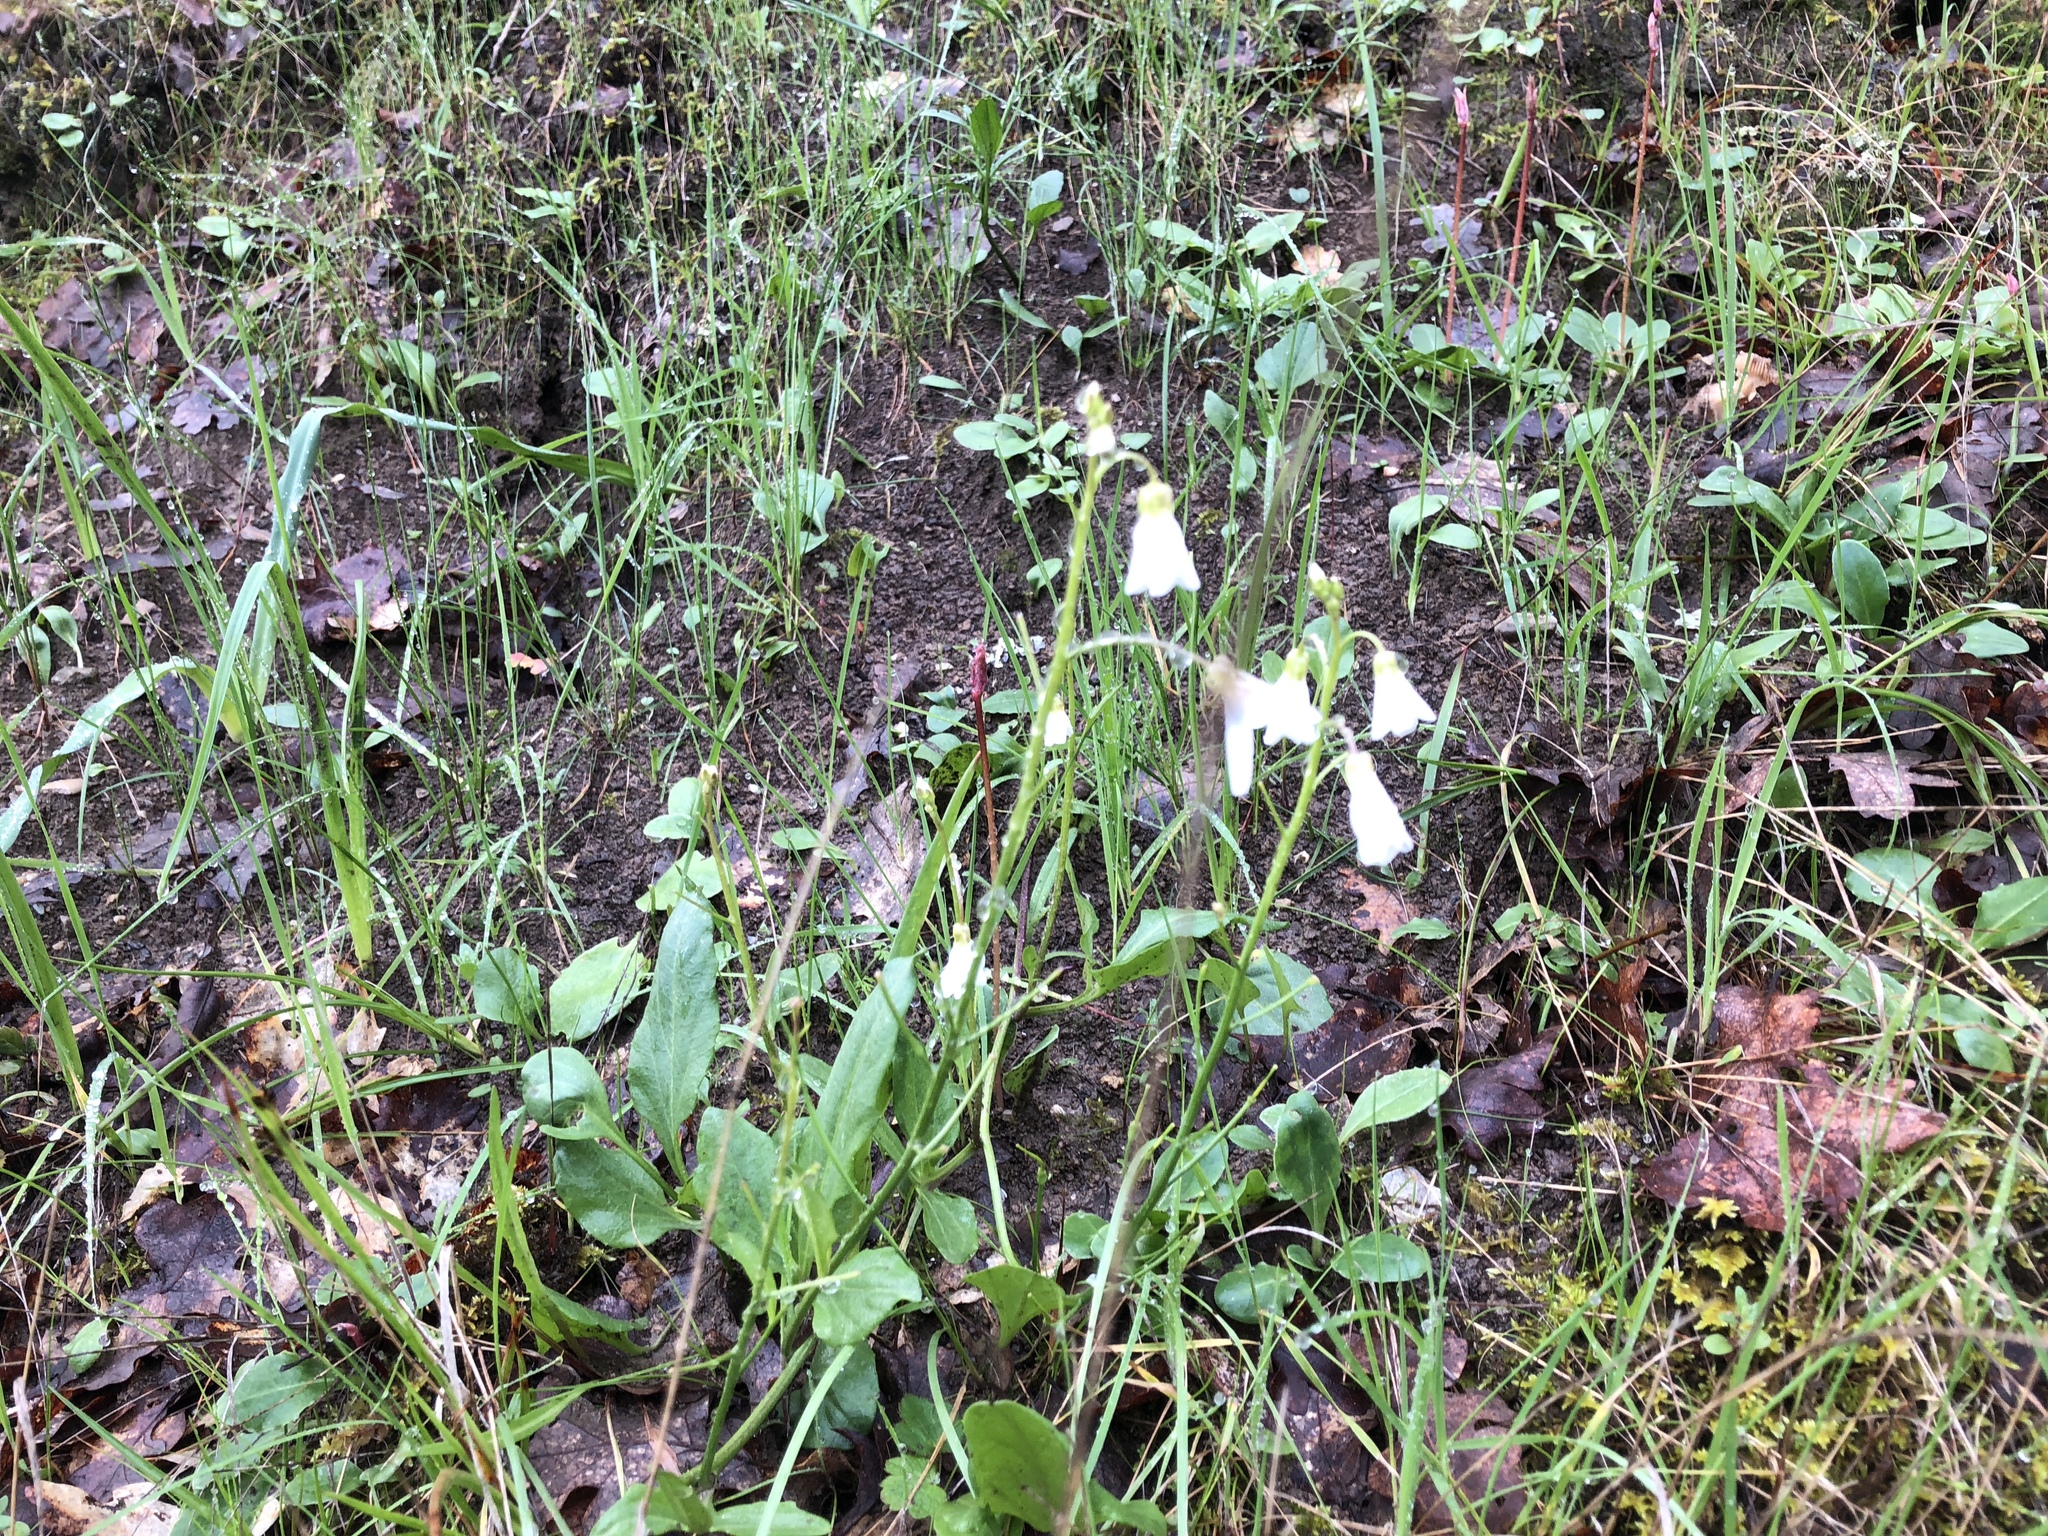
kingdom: Plantae
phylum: Tracheophyta
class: Magnoliopsida
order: Brassicales
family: Brassicaceae
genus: Cardamine
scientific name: Cardamine californica
